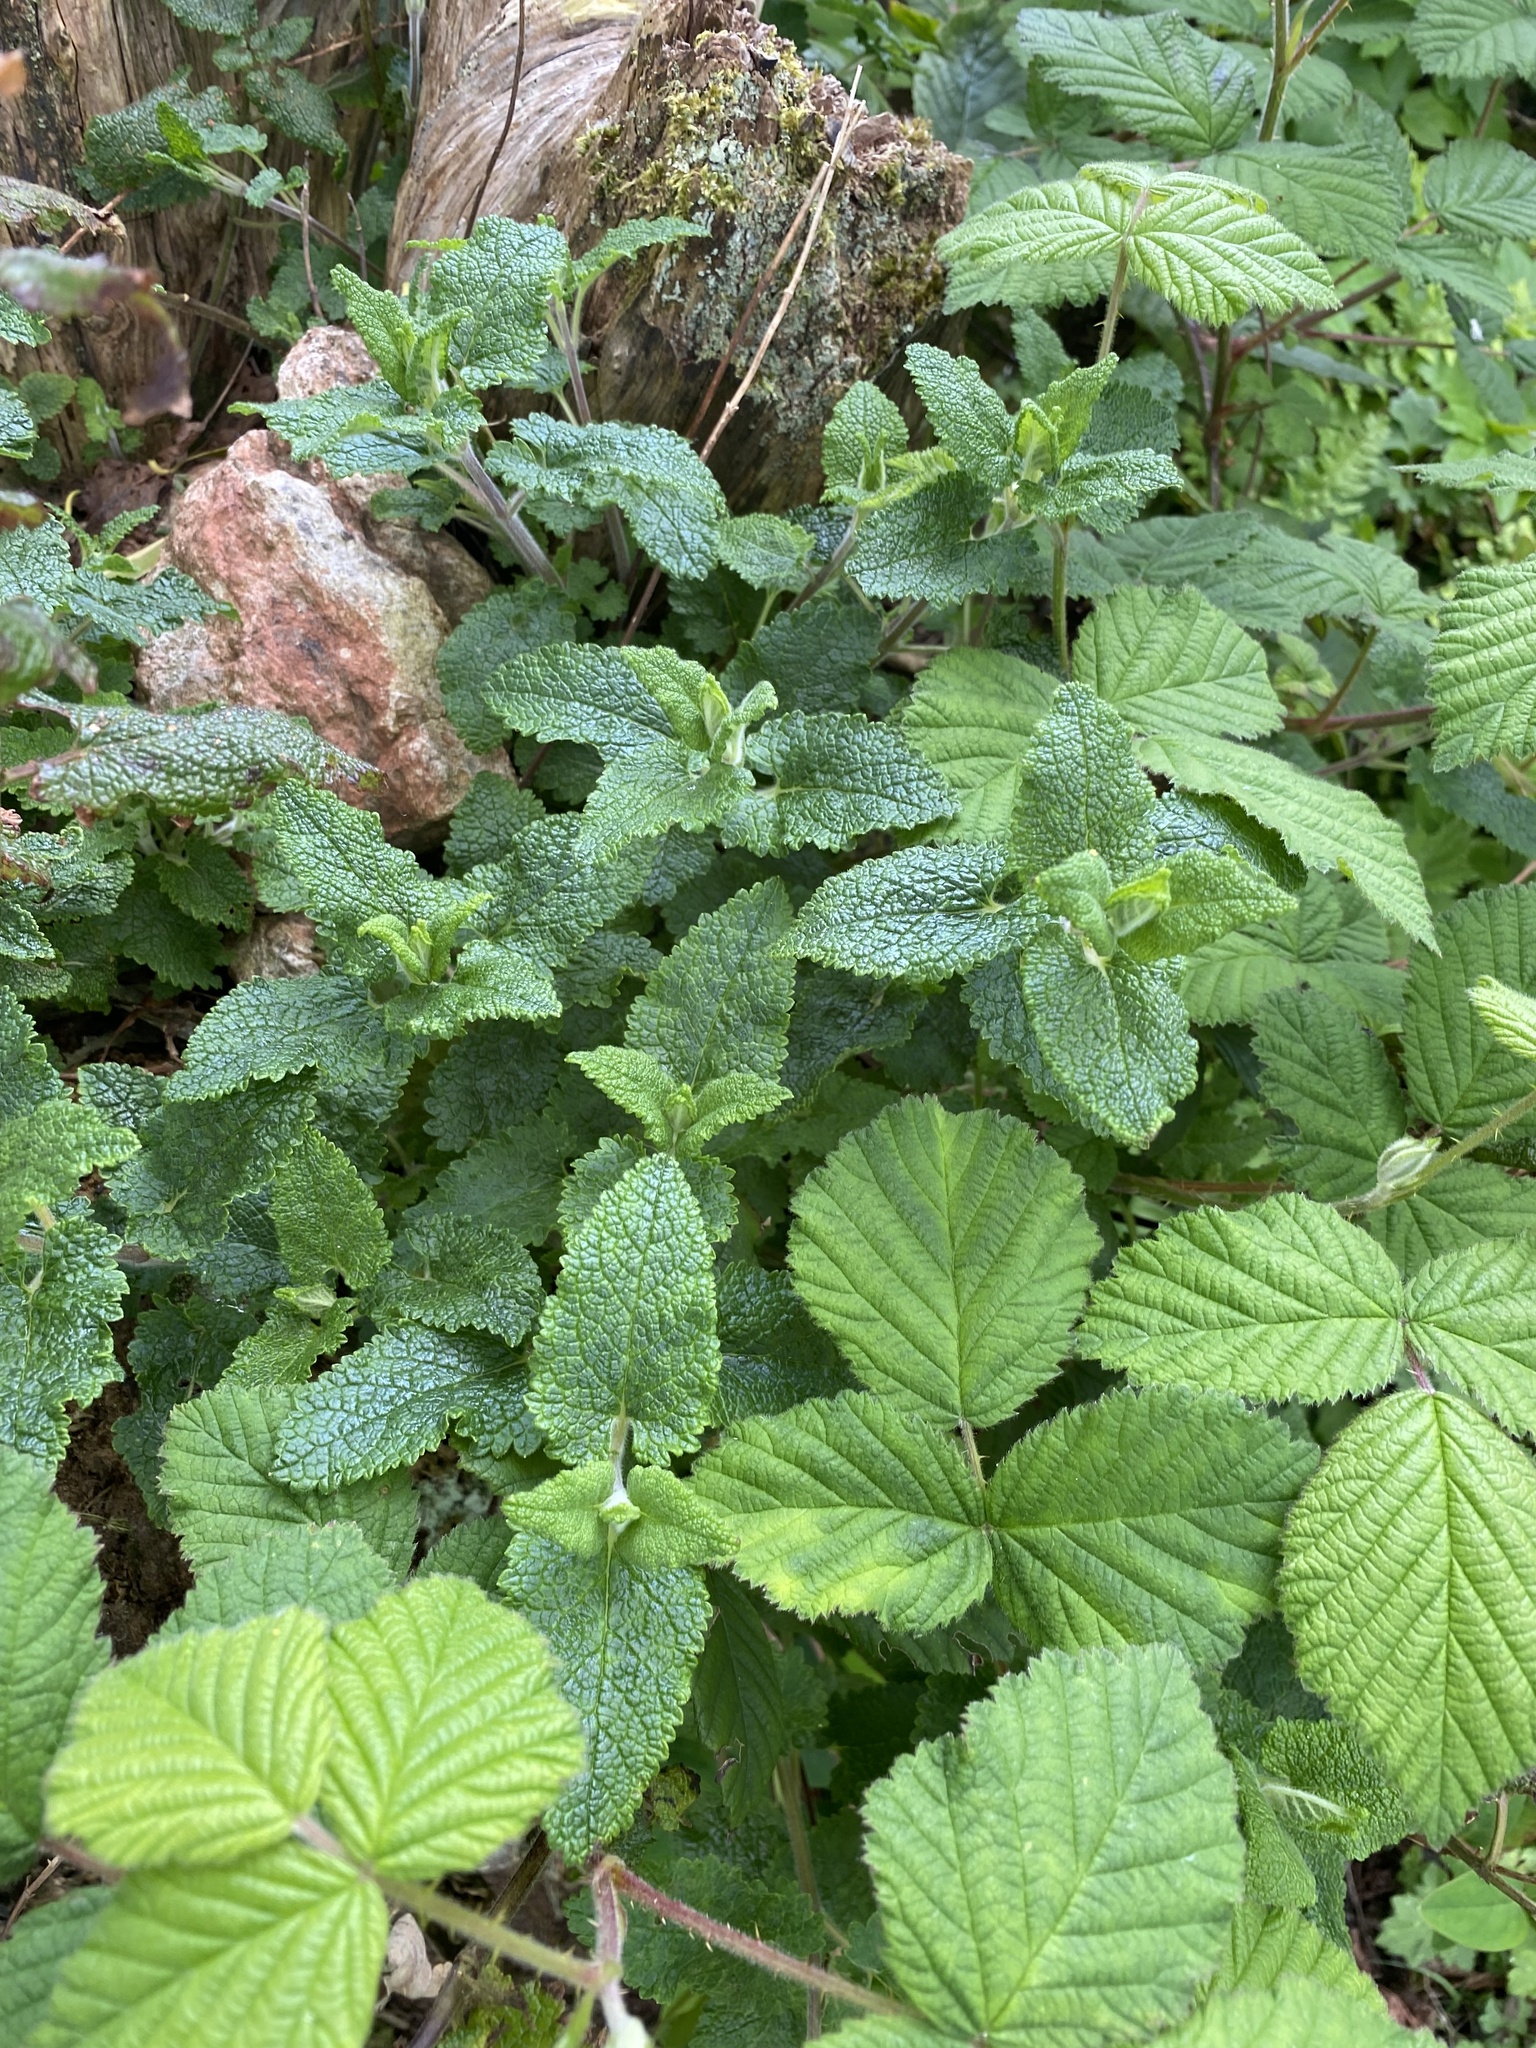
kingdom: Plantae
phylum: Tracheophyta
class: Magnoliopsida
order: Lamiales
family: Lamiaceae
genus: Teucrium
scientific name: Teucrium scorodonia
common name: Woodland germander
